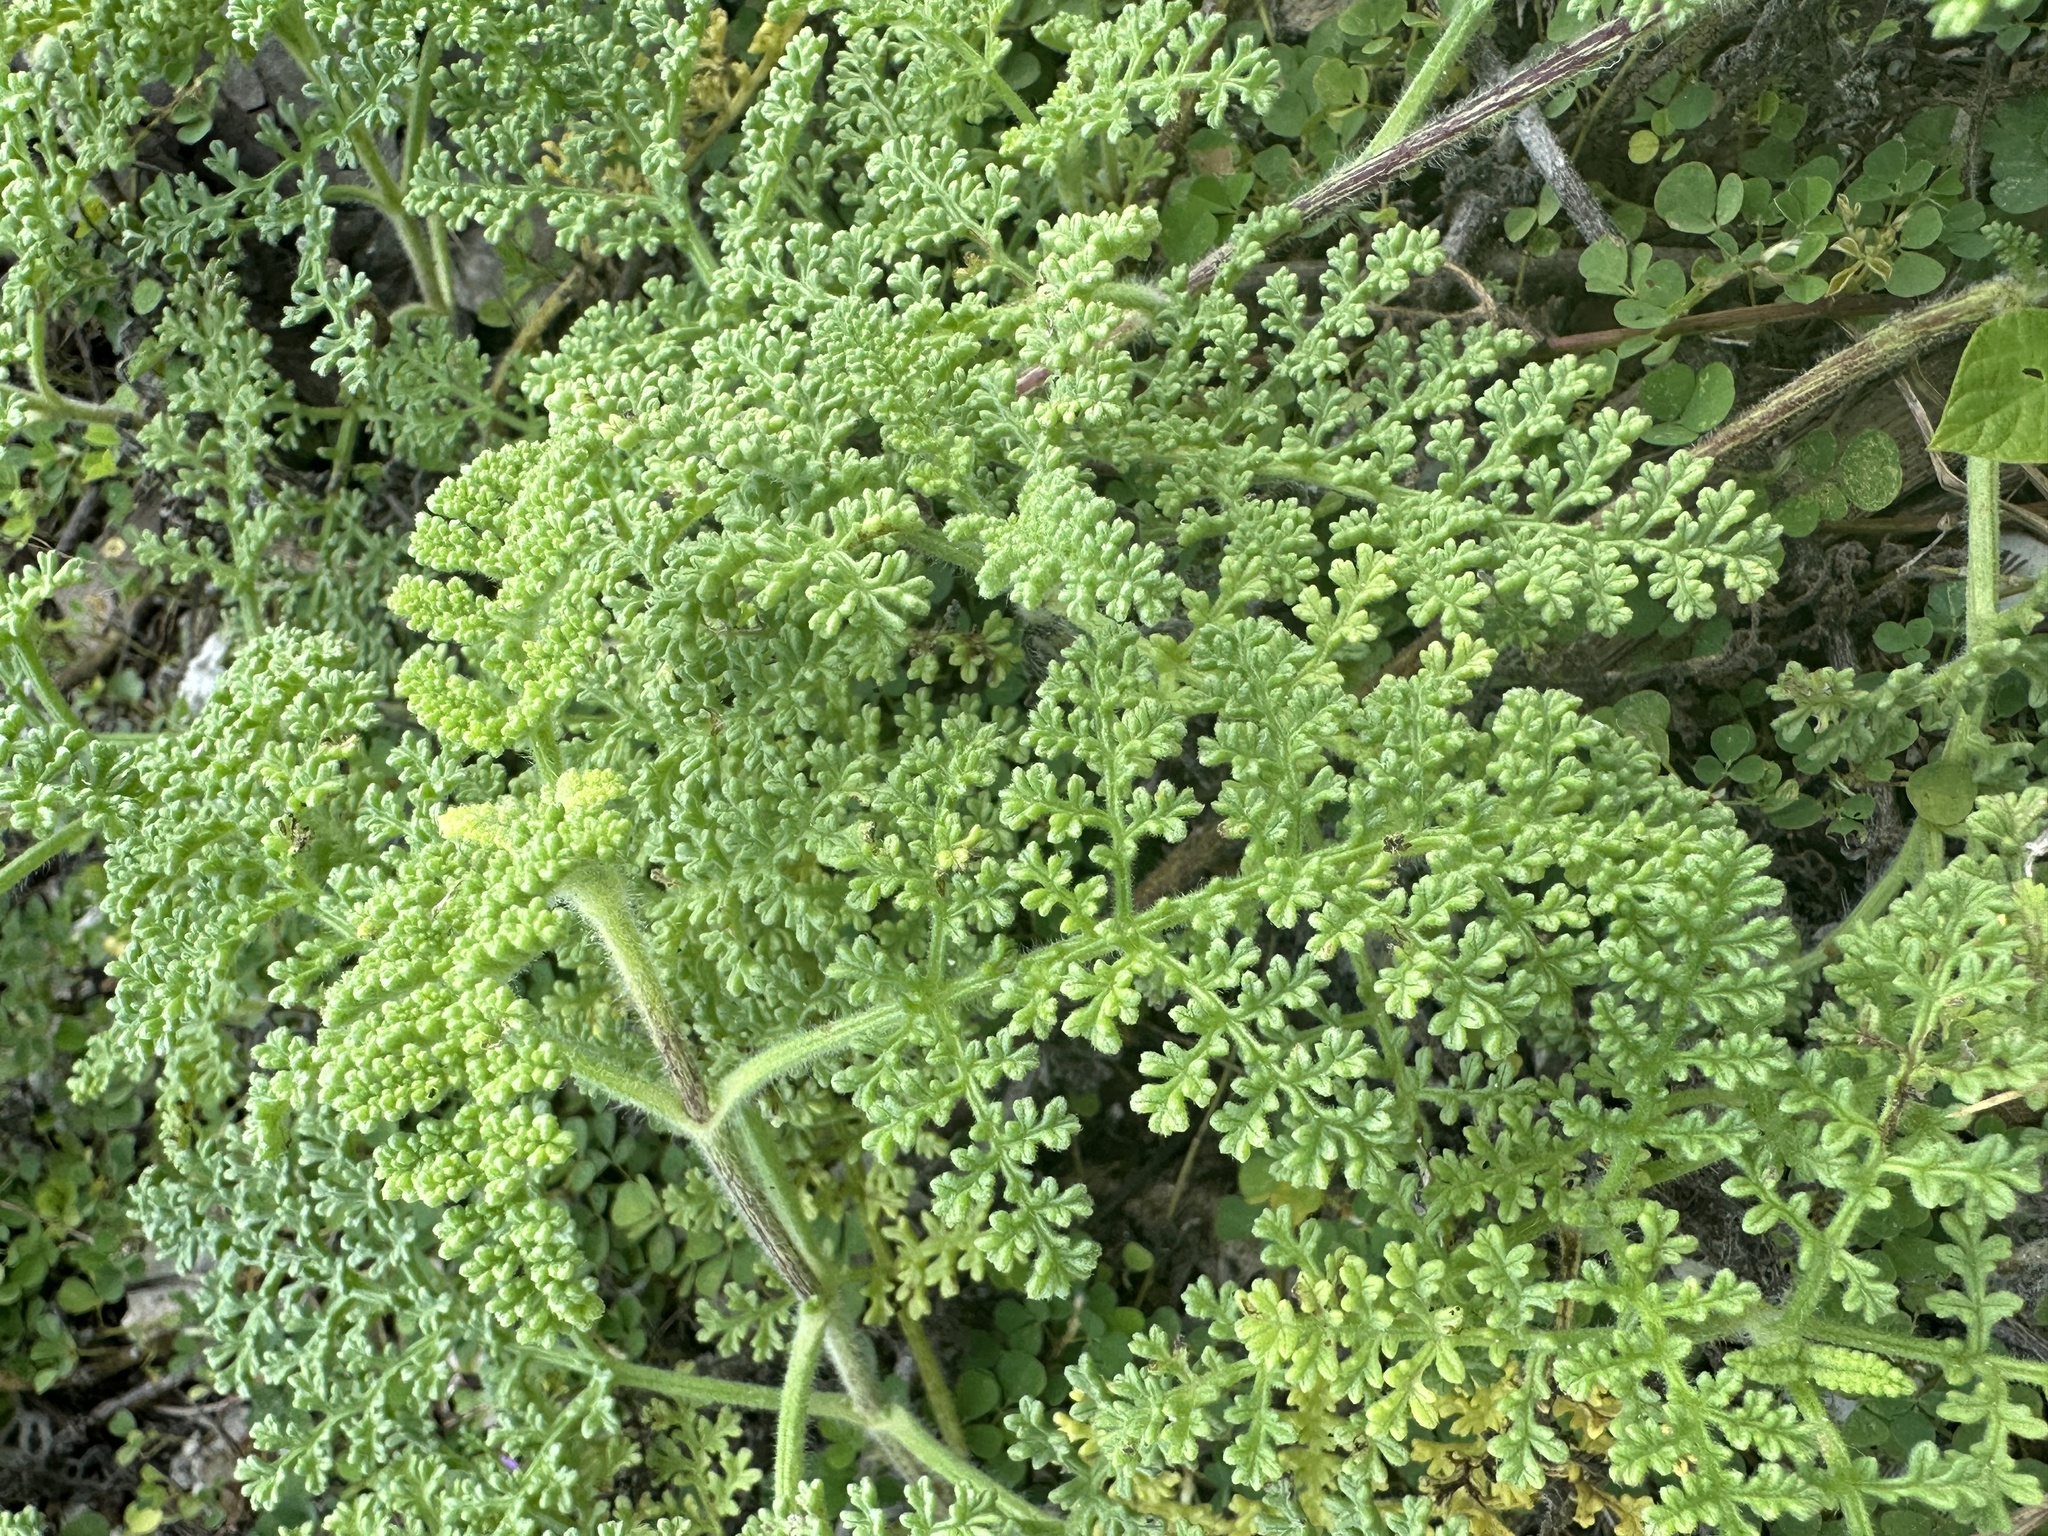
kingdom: Plantae
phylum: Tracheophyta
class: Magnoliopsida
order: Asterales
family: Asteraceae
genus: Ambrosia
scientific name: Ambrosia hispida
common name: Coastal ragweed
